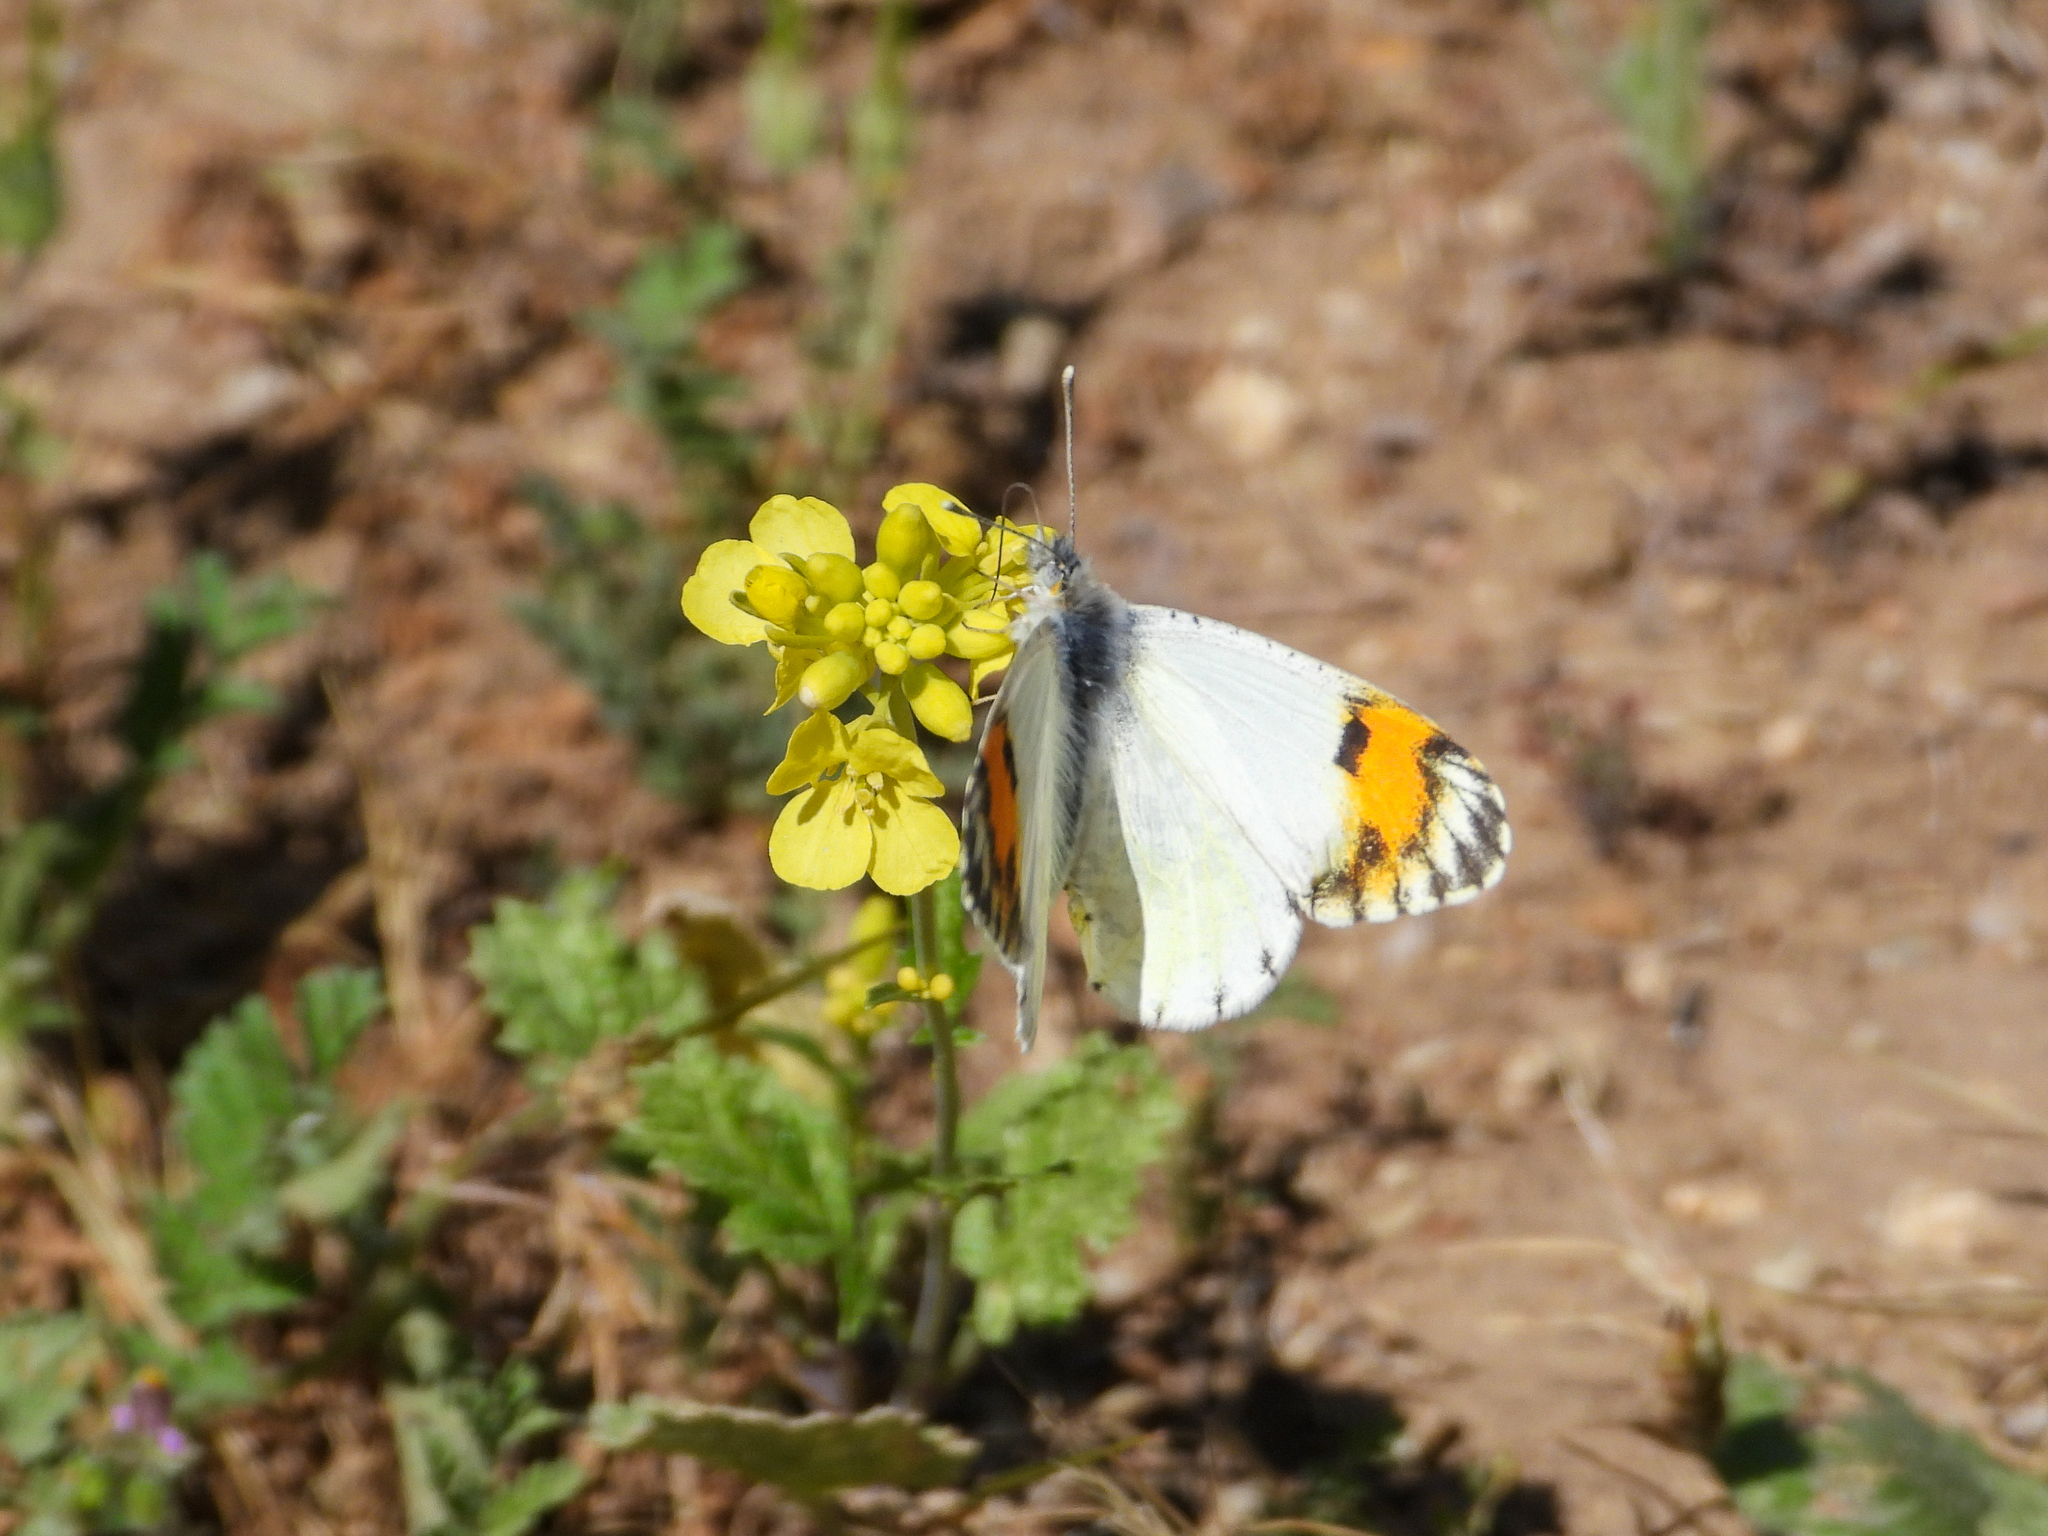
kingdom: Animalia
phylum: Arthropoda
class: Insecta
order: Lepidoptera
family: Pieridae
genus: Anthocharis
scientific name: Anthocharis sara
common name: Sara's orangetip
